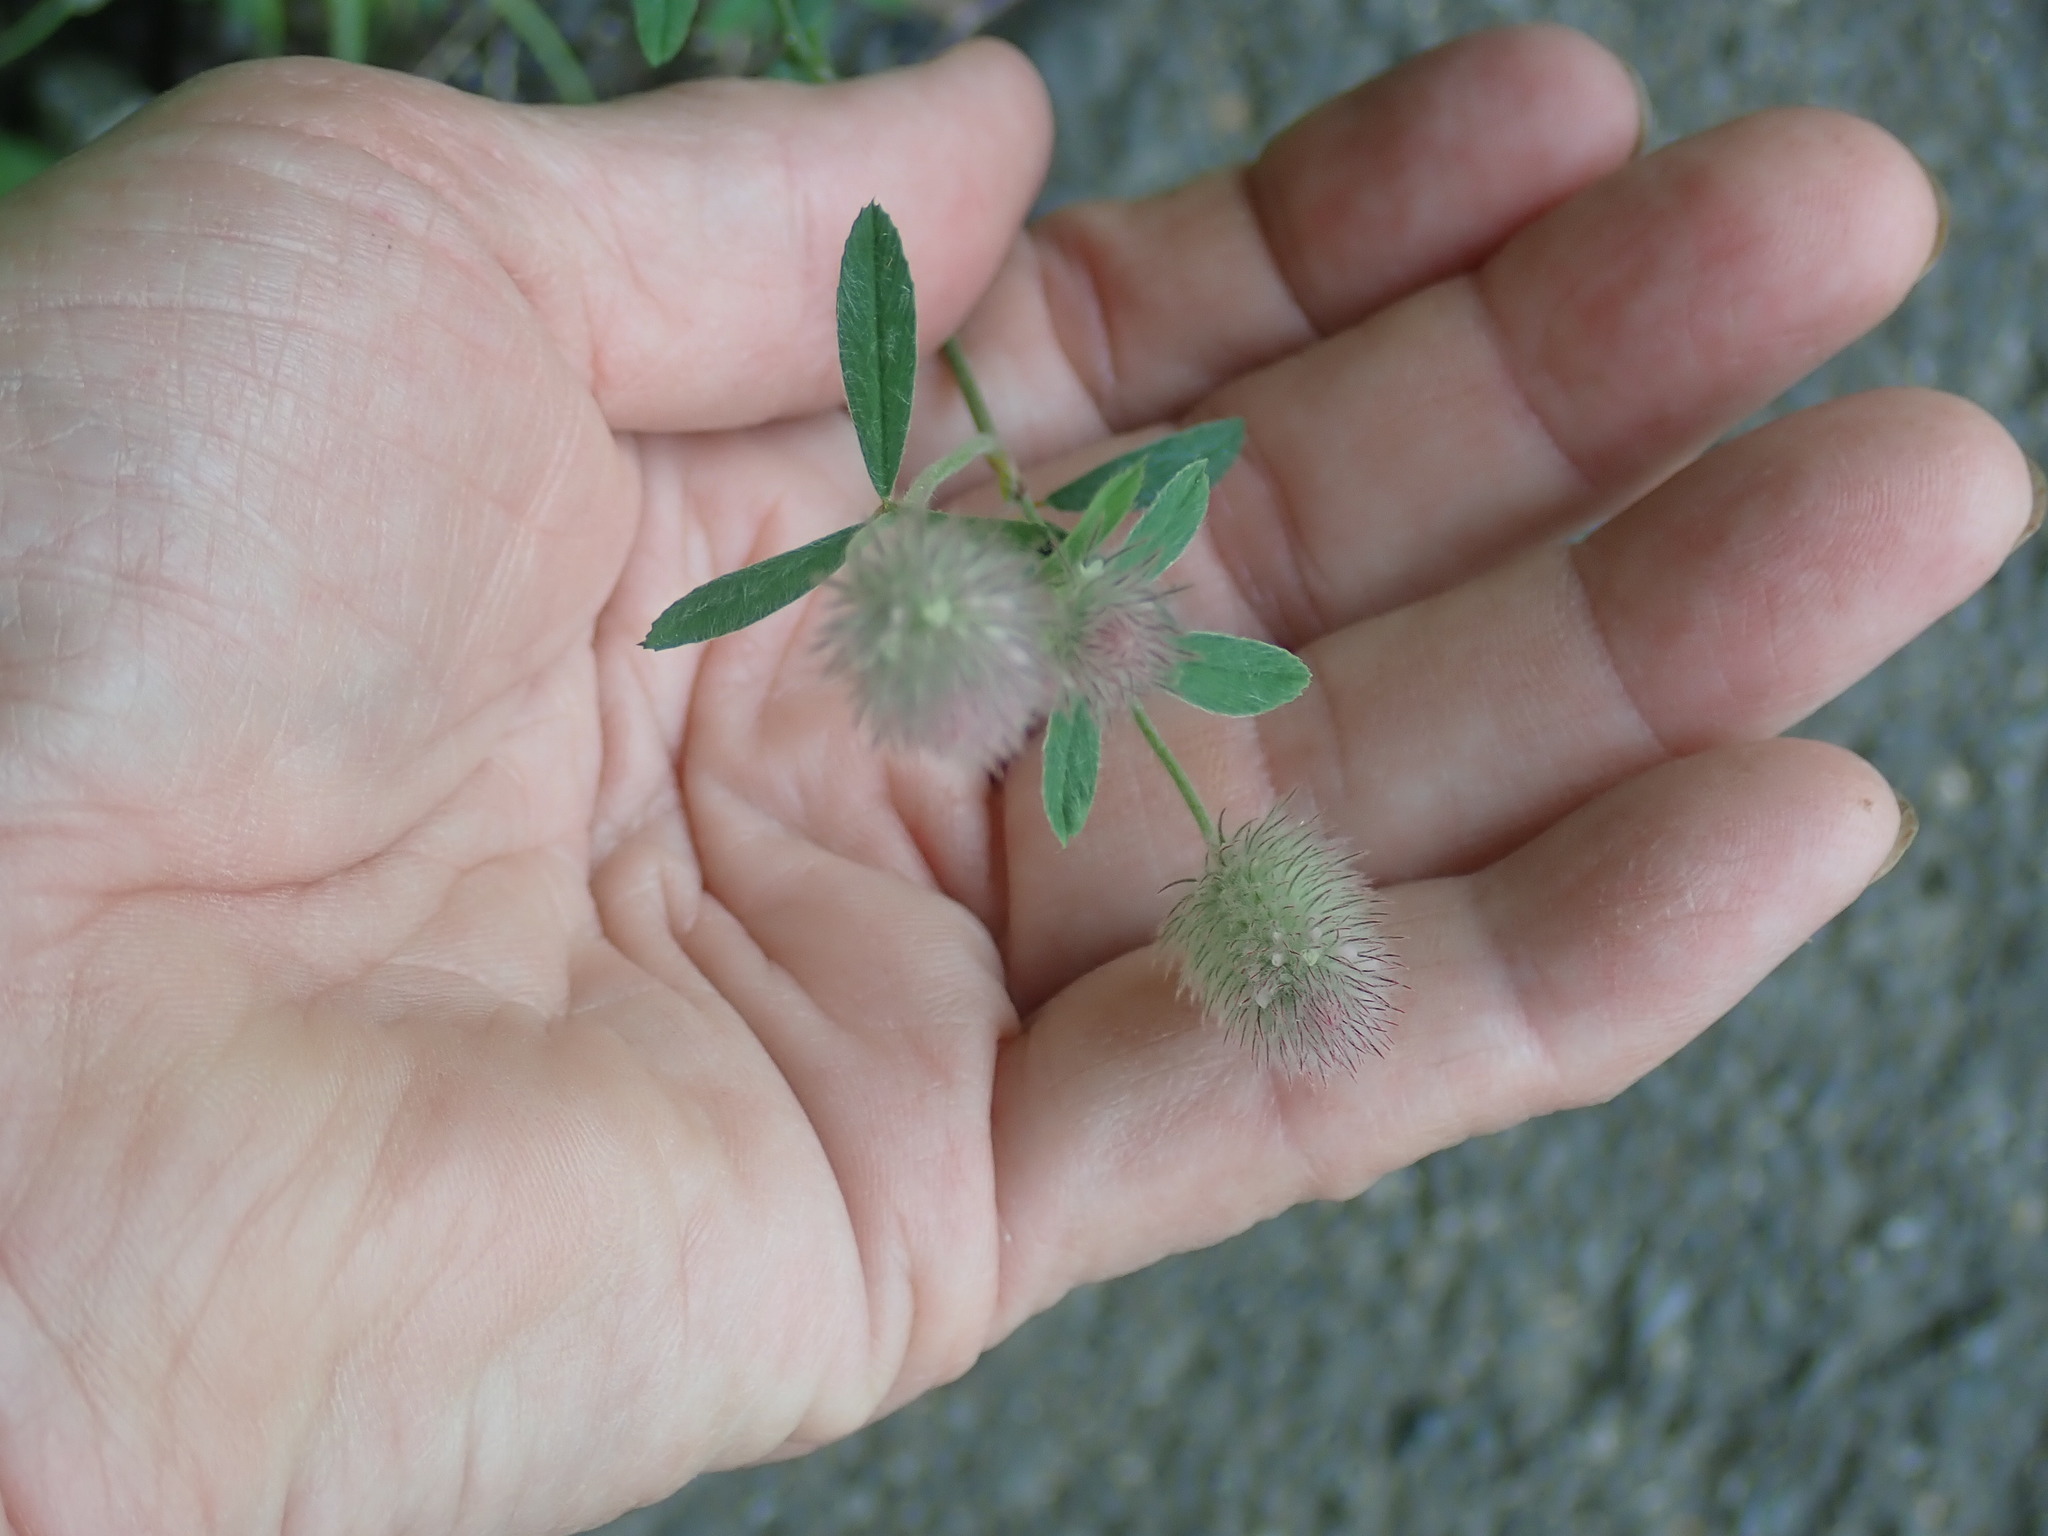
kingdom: Plantae
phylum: Tracheophyta
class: Magnoliopsida
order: Fabales
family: Fabaceae
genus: Trifolium
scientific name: Trifolium arvense
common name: Hare's-foot clover
